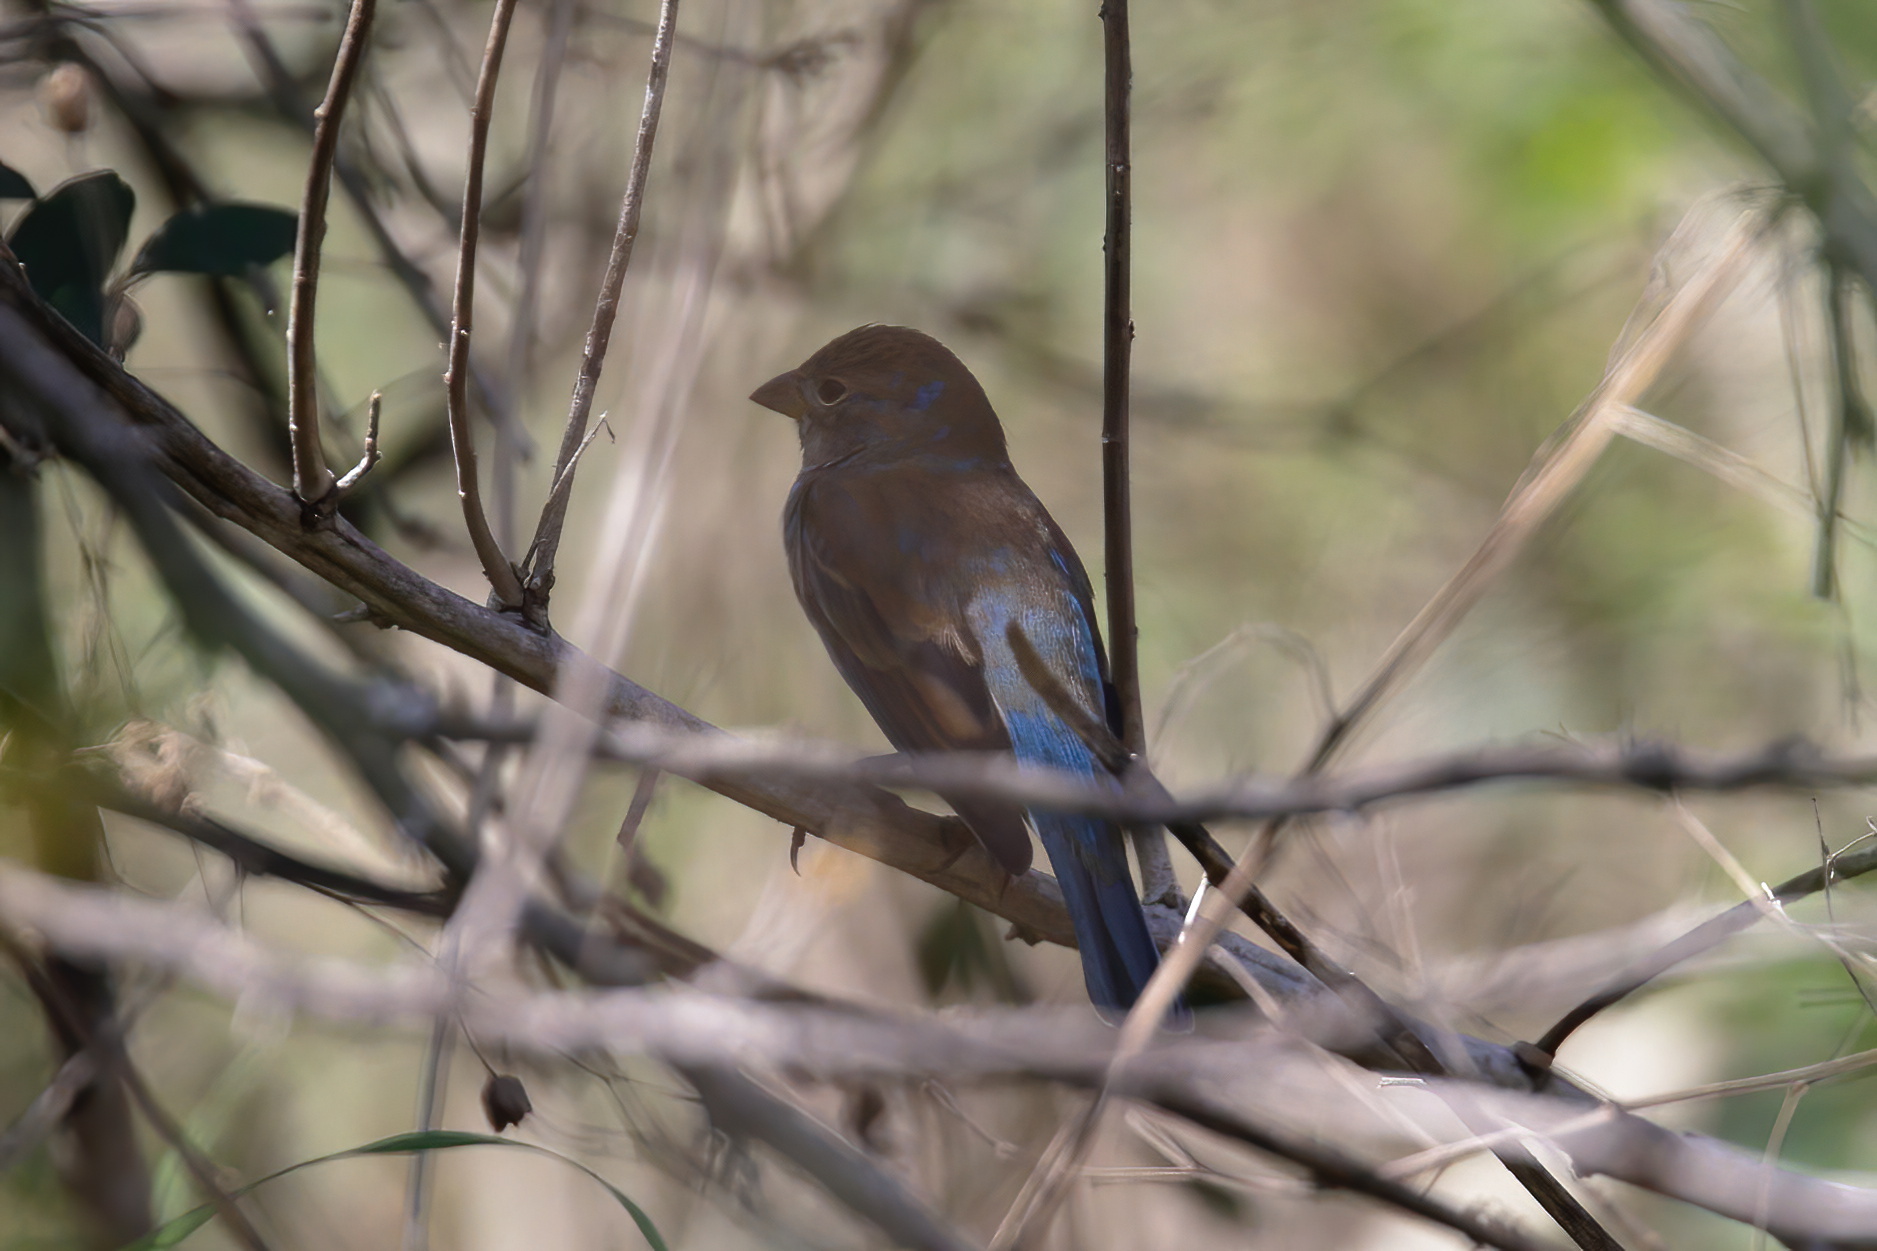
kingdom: Animalia
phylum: Chordata
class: Aves
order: Passeriformes
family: Cardinalidae
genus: Passerina
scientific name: Passerina cyanea
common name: Indigo bunting
